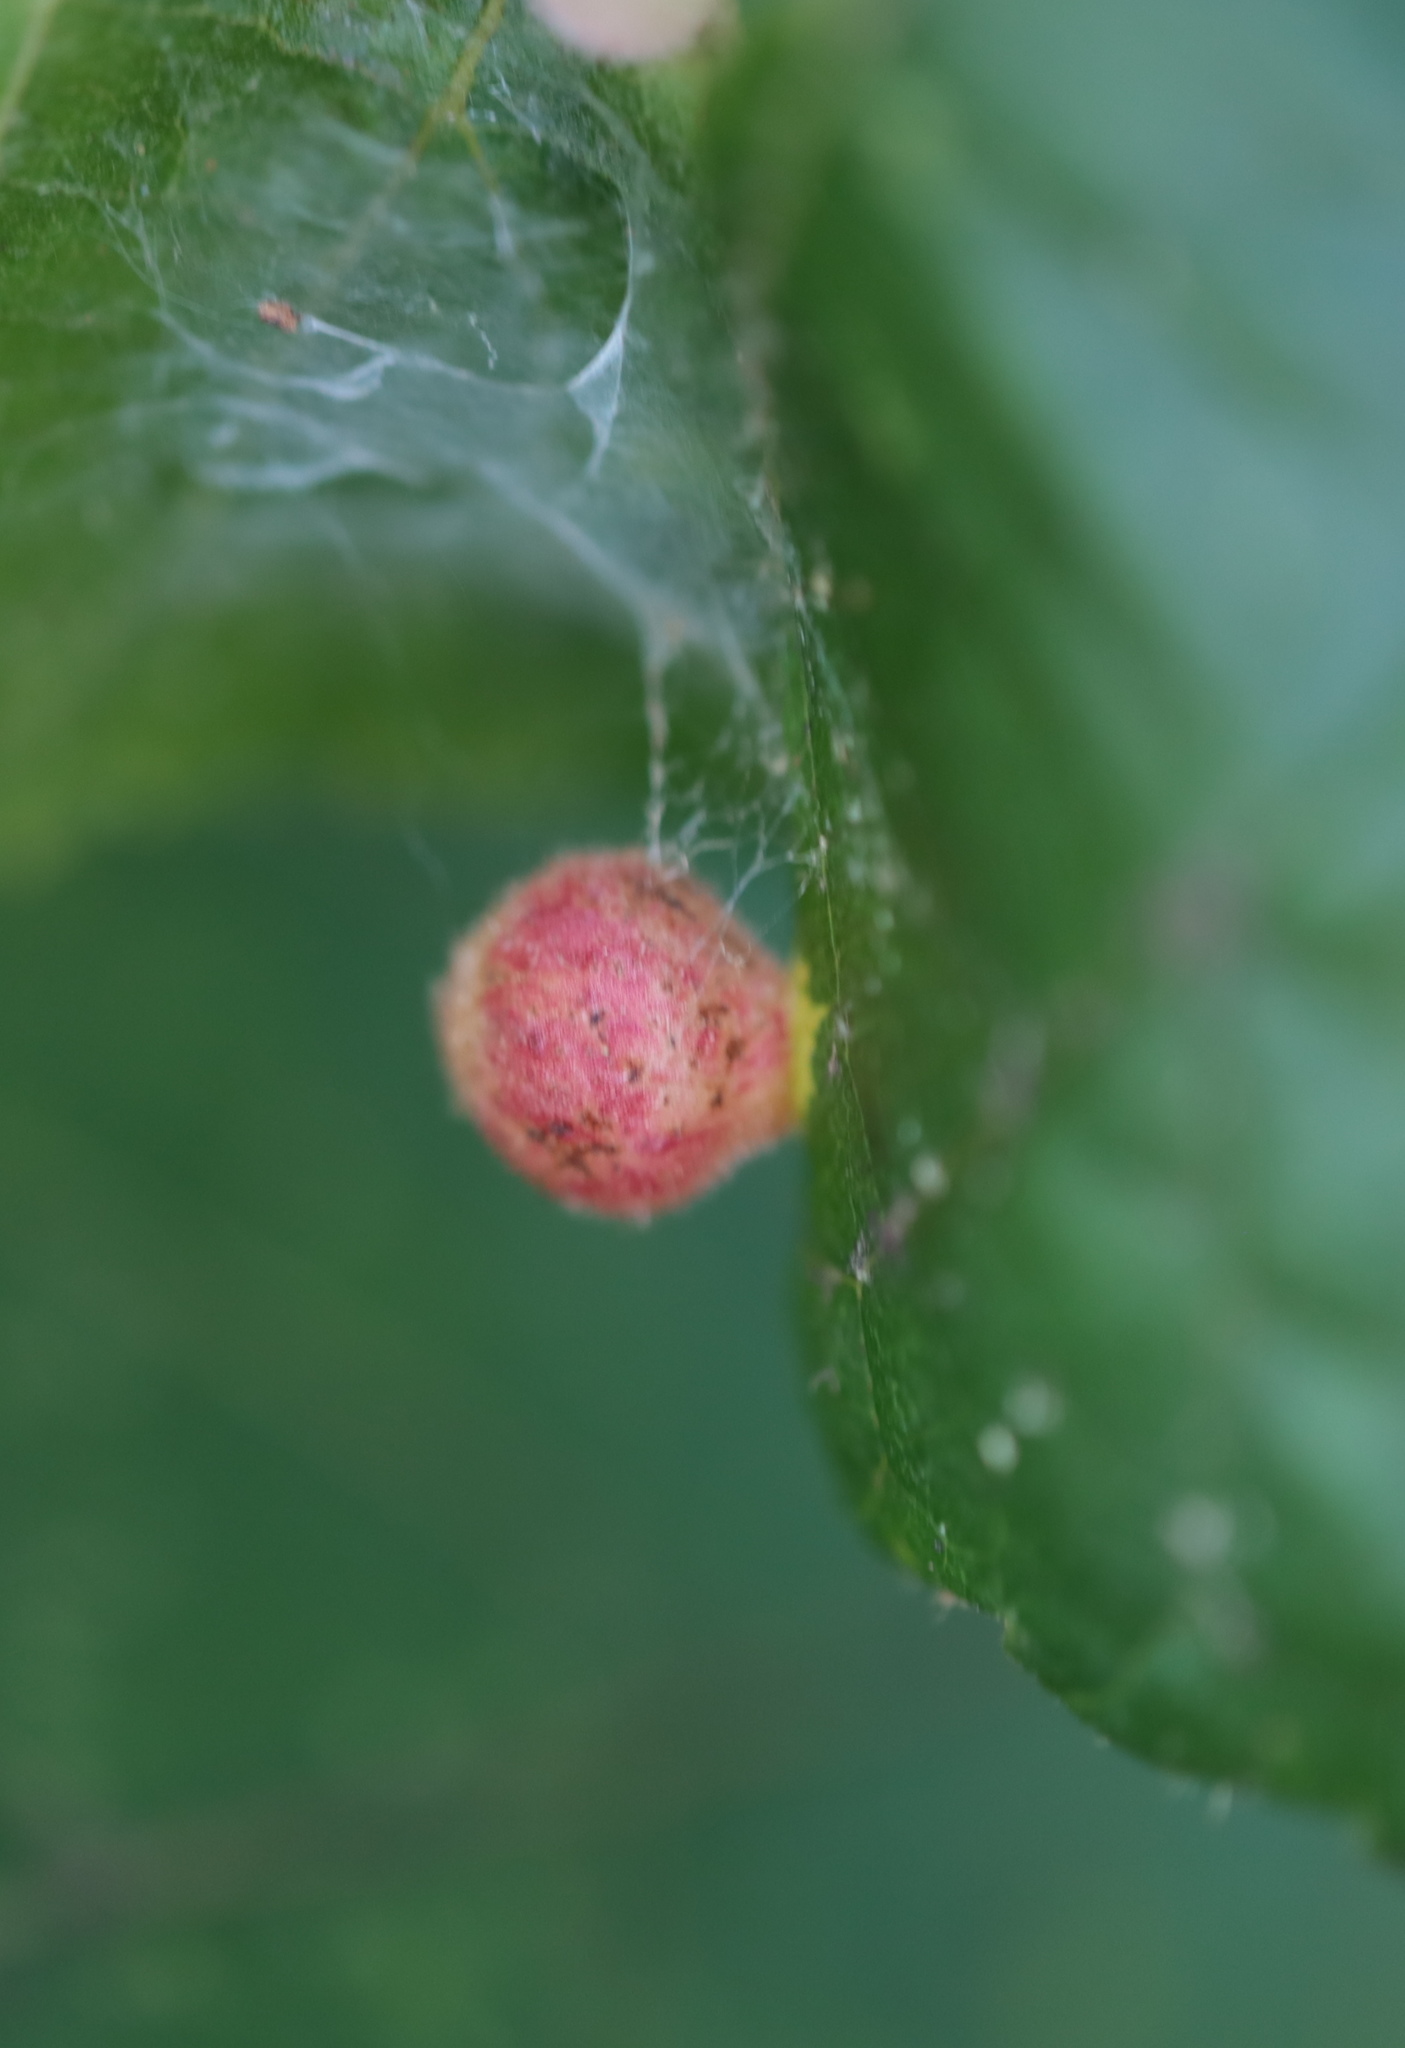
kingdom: Animalia
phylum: Arthropoda
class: Insecta
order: Diptera
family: Cecidomyiidae
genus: Caryomyia
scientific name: Caryomyia tuberidolium
